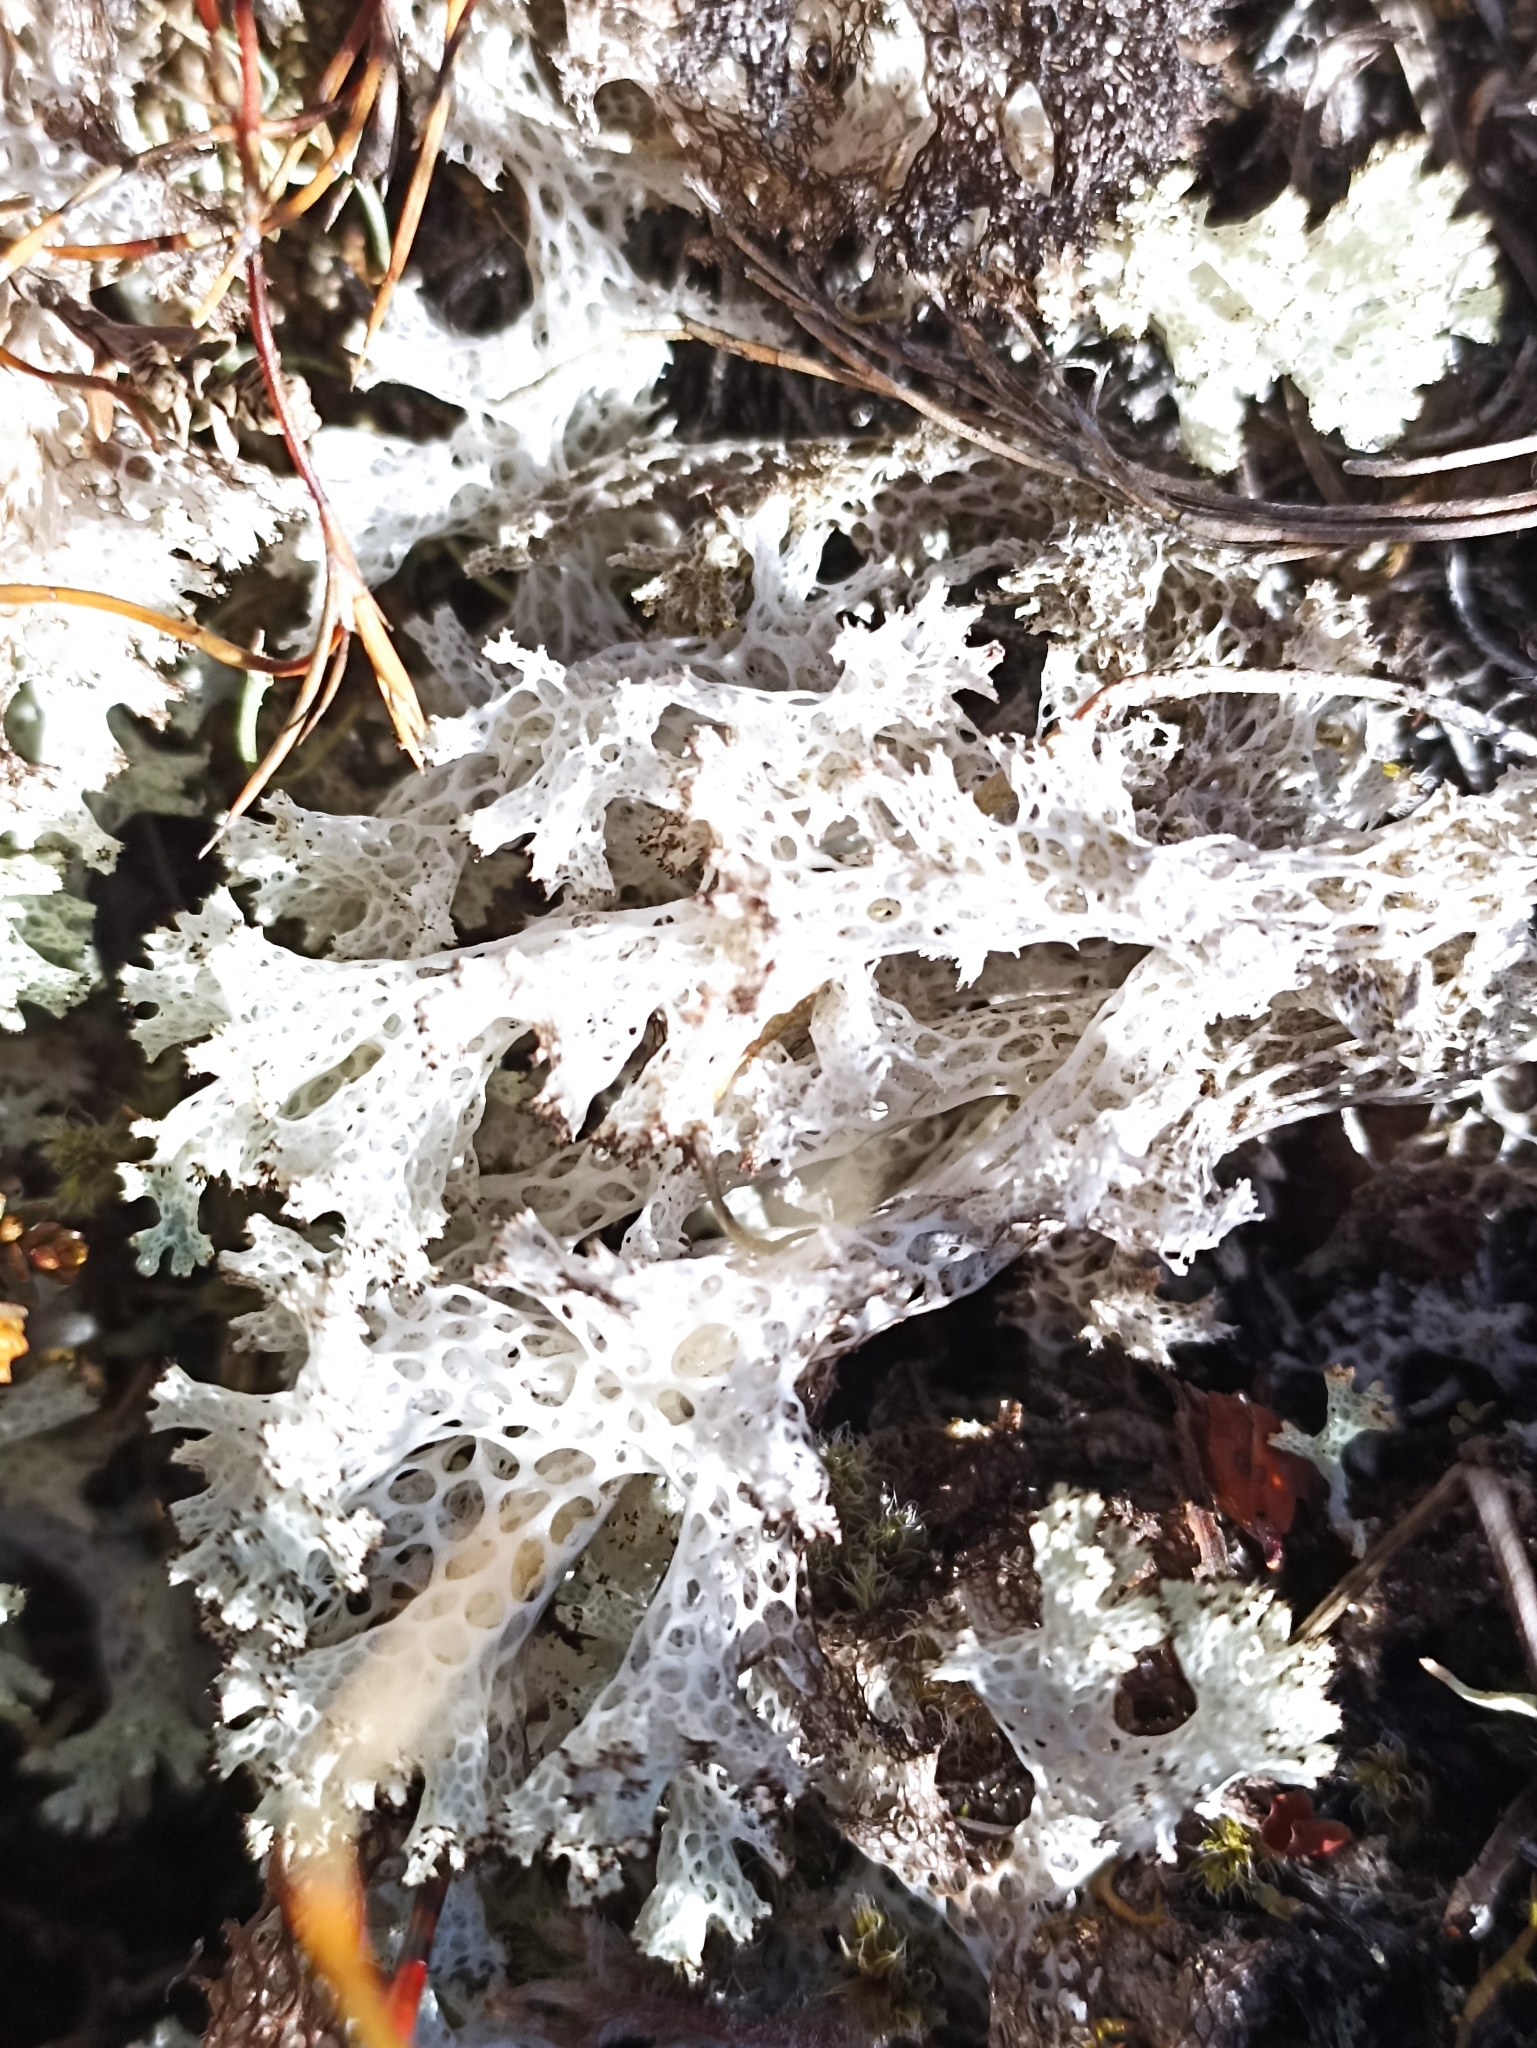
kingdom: Fungi
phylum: Ascomycota
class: Lecanoromycetes
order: Lecanorales
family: Cladoniaceae
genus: Pulchrocladia
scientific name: Pulchrocladia retipora
